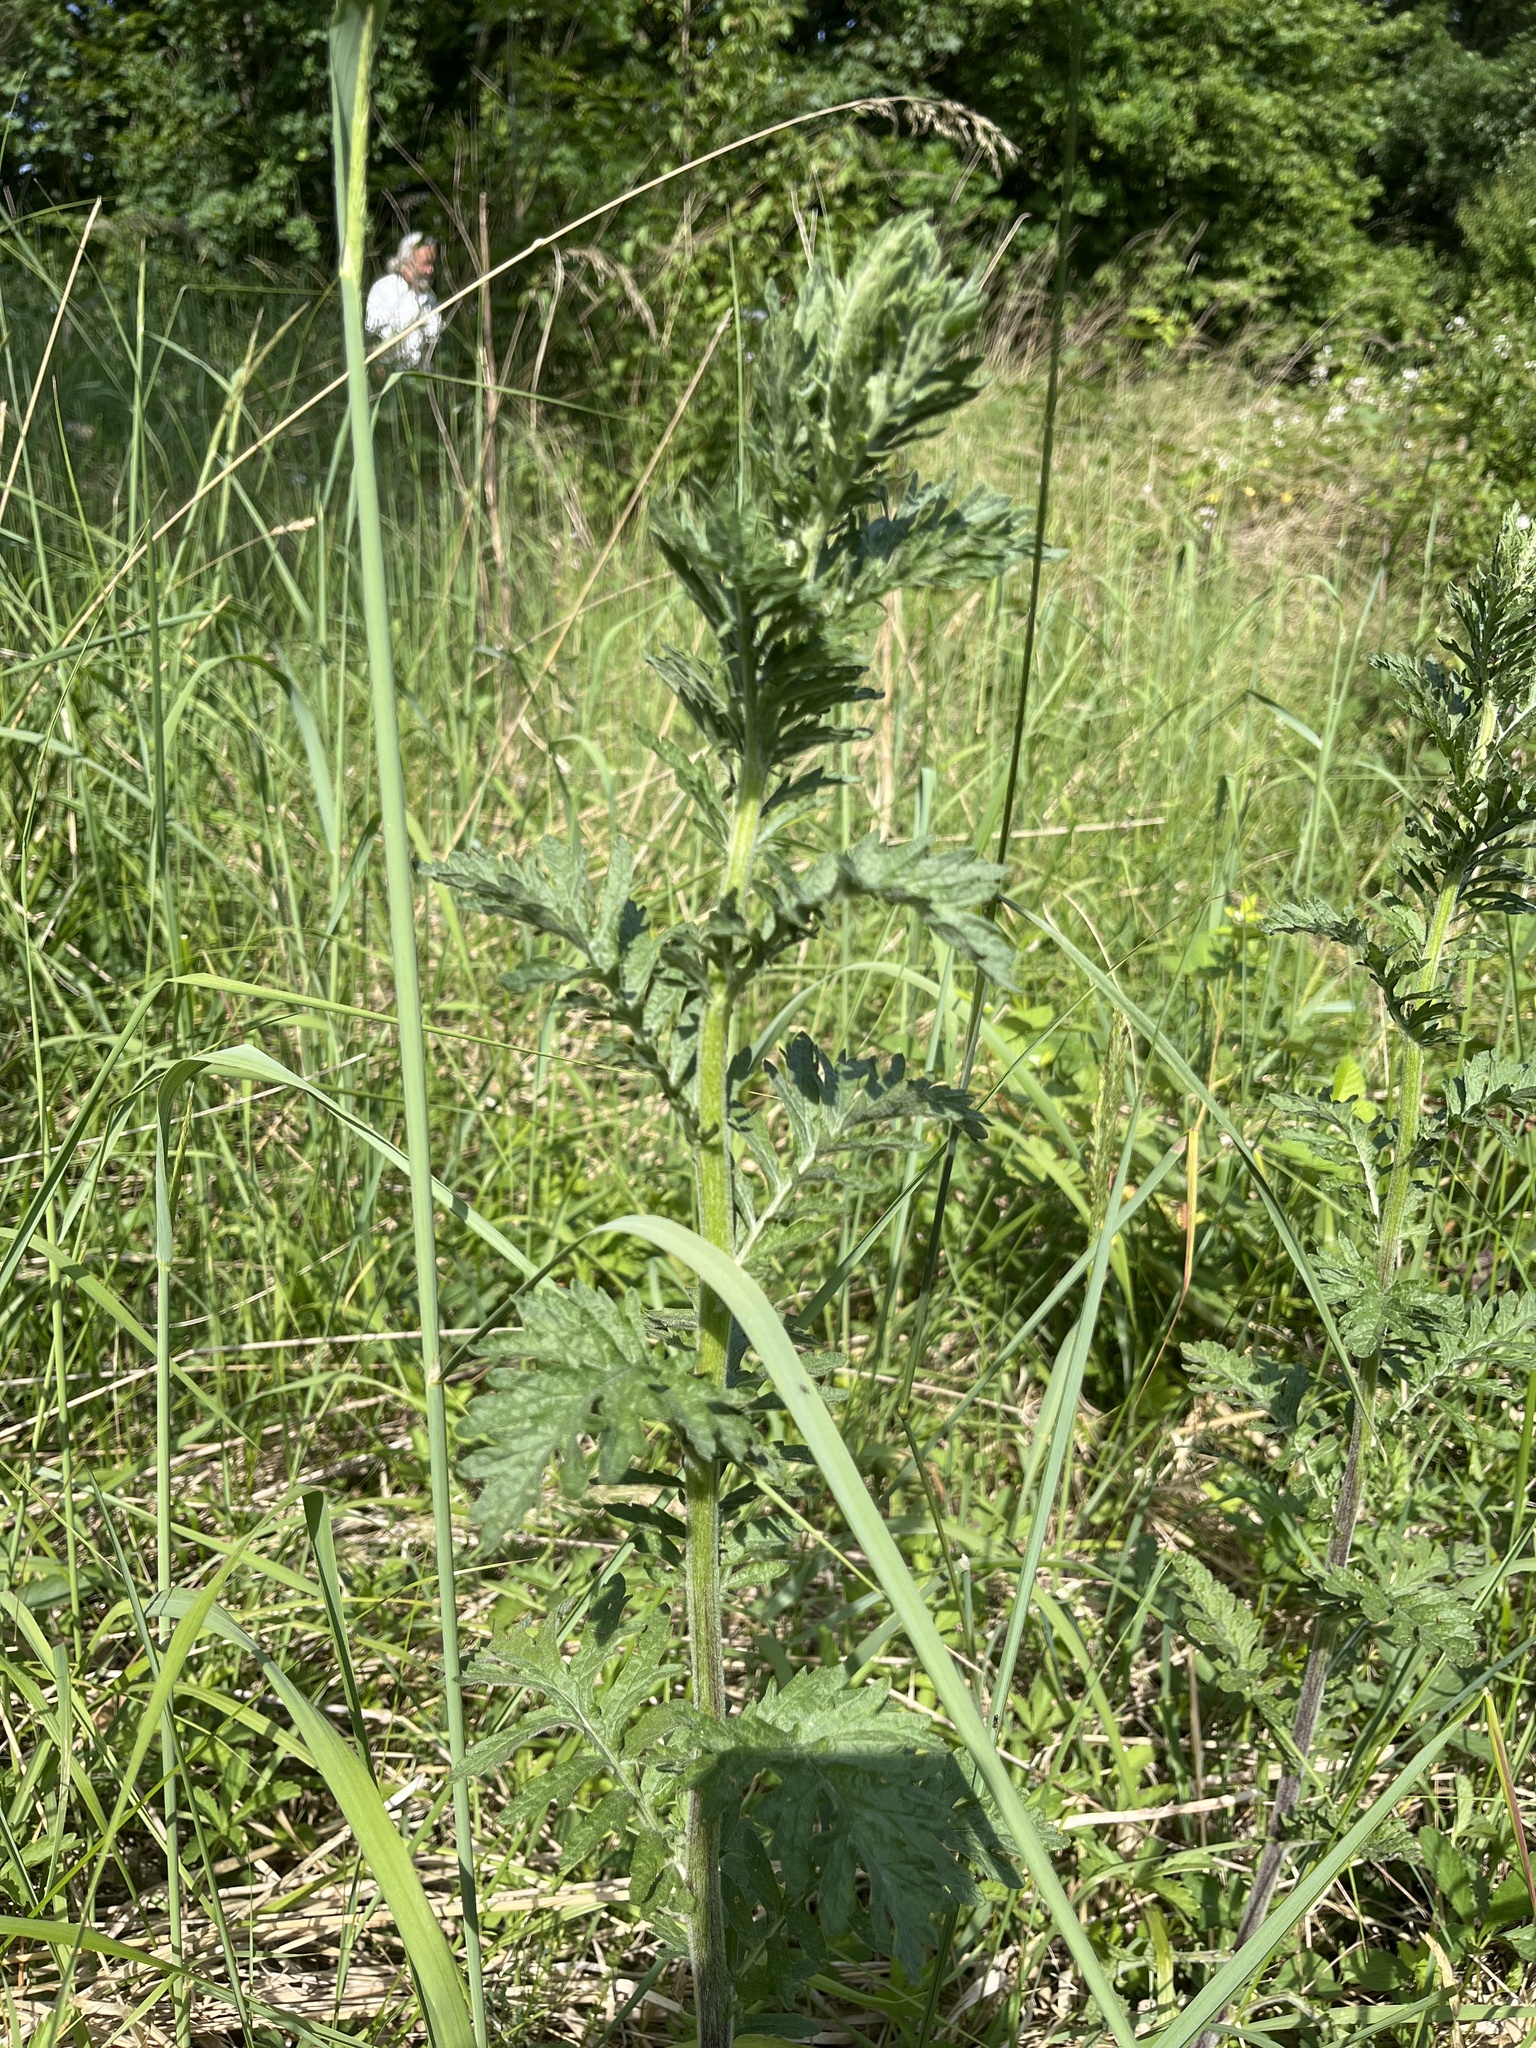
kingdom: Plantae
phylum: Tracheophyta
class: Magnoliopsida
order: Asterales
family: Asteraceae
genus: Jacobaea
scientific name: Jacobaea erucifolia
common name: Hoary ragwort
